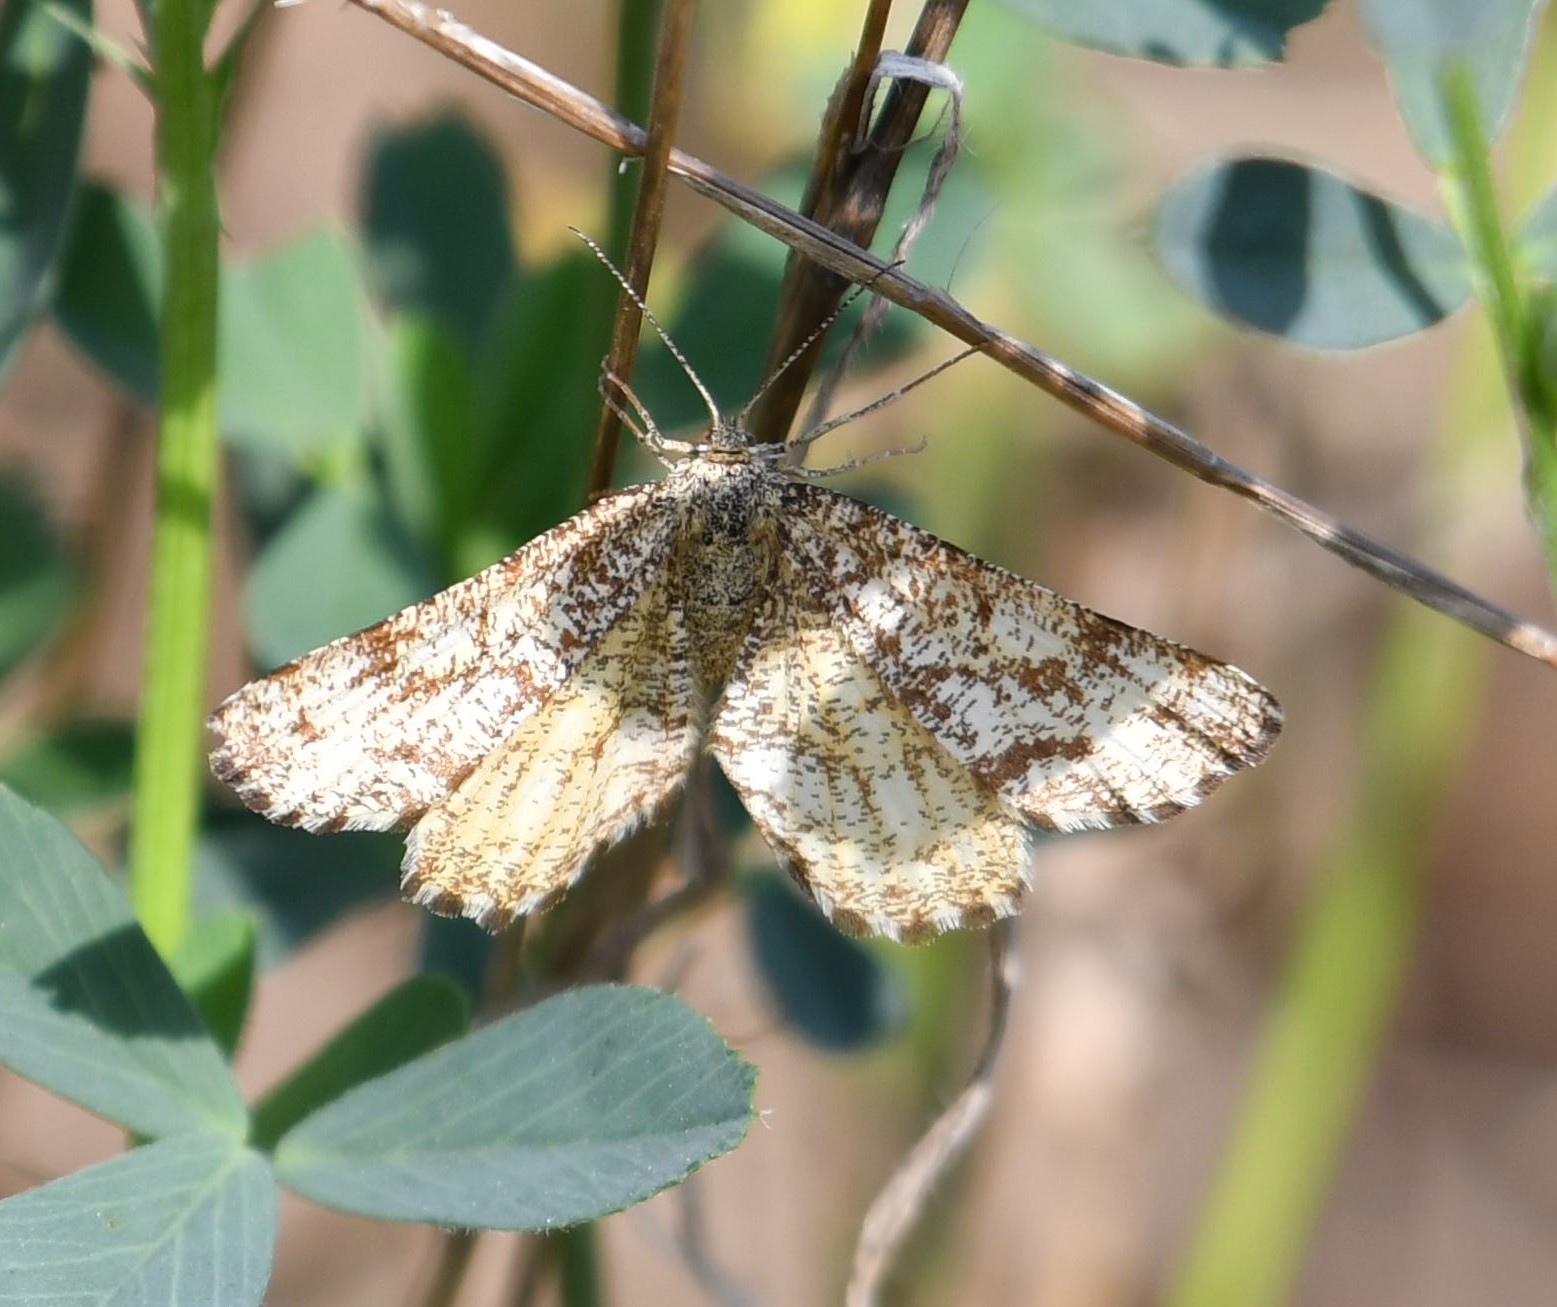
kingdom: Animalia
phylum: Arthropoda
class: Insecta
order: Lepidoptera
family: Geometridae
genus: Ematurga
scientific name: Ematurga atomaria
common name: Common heath
